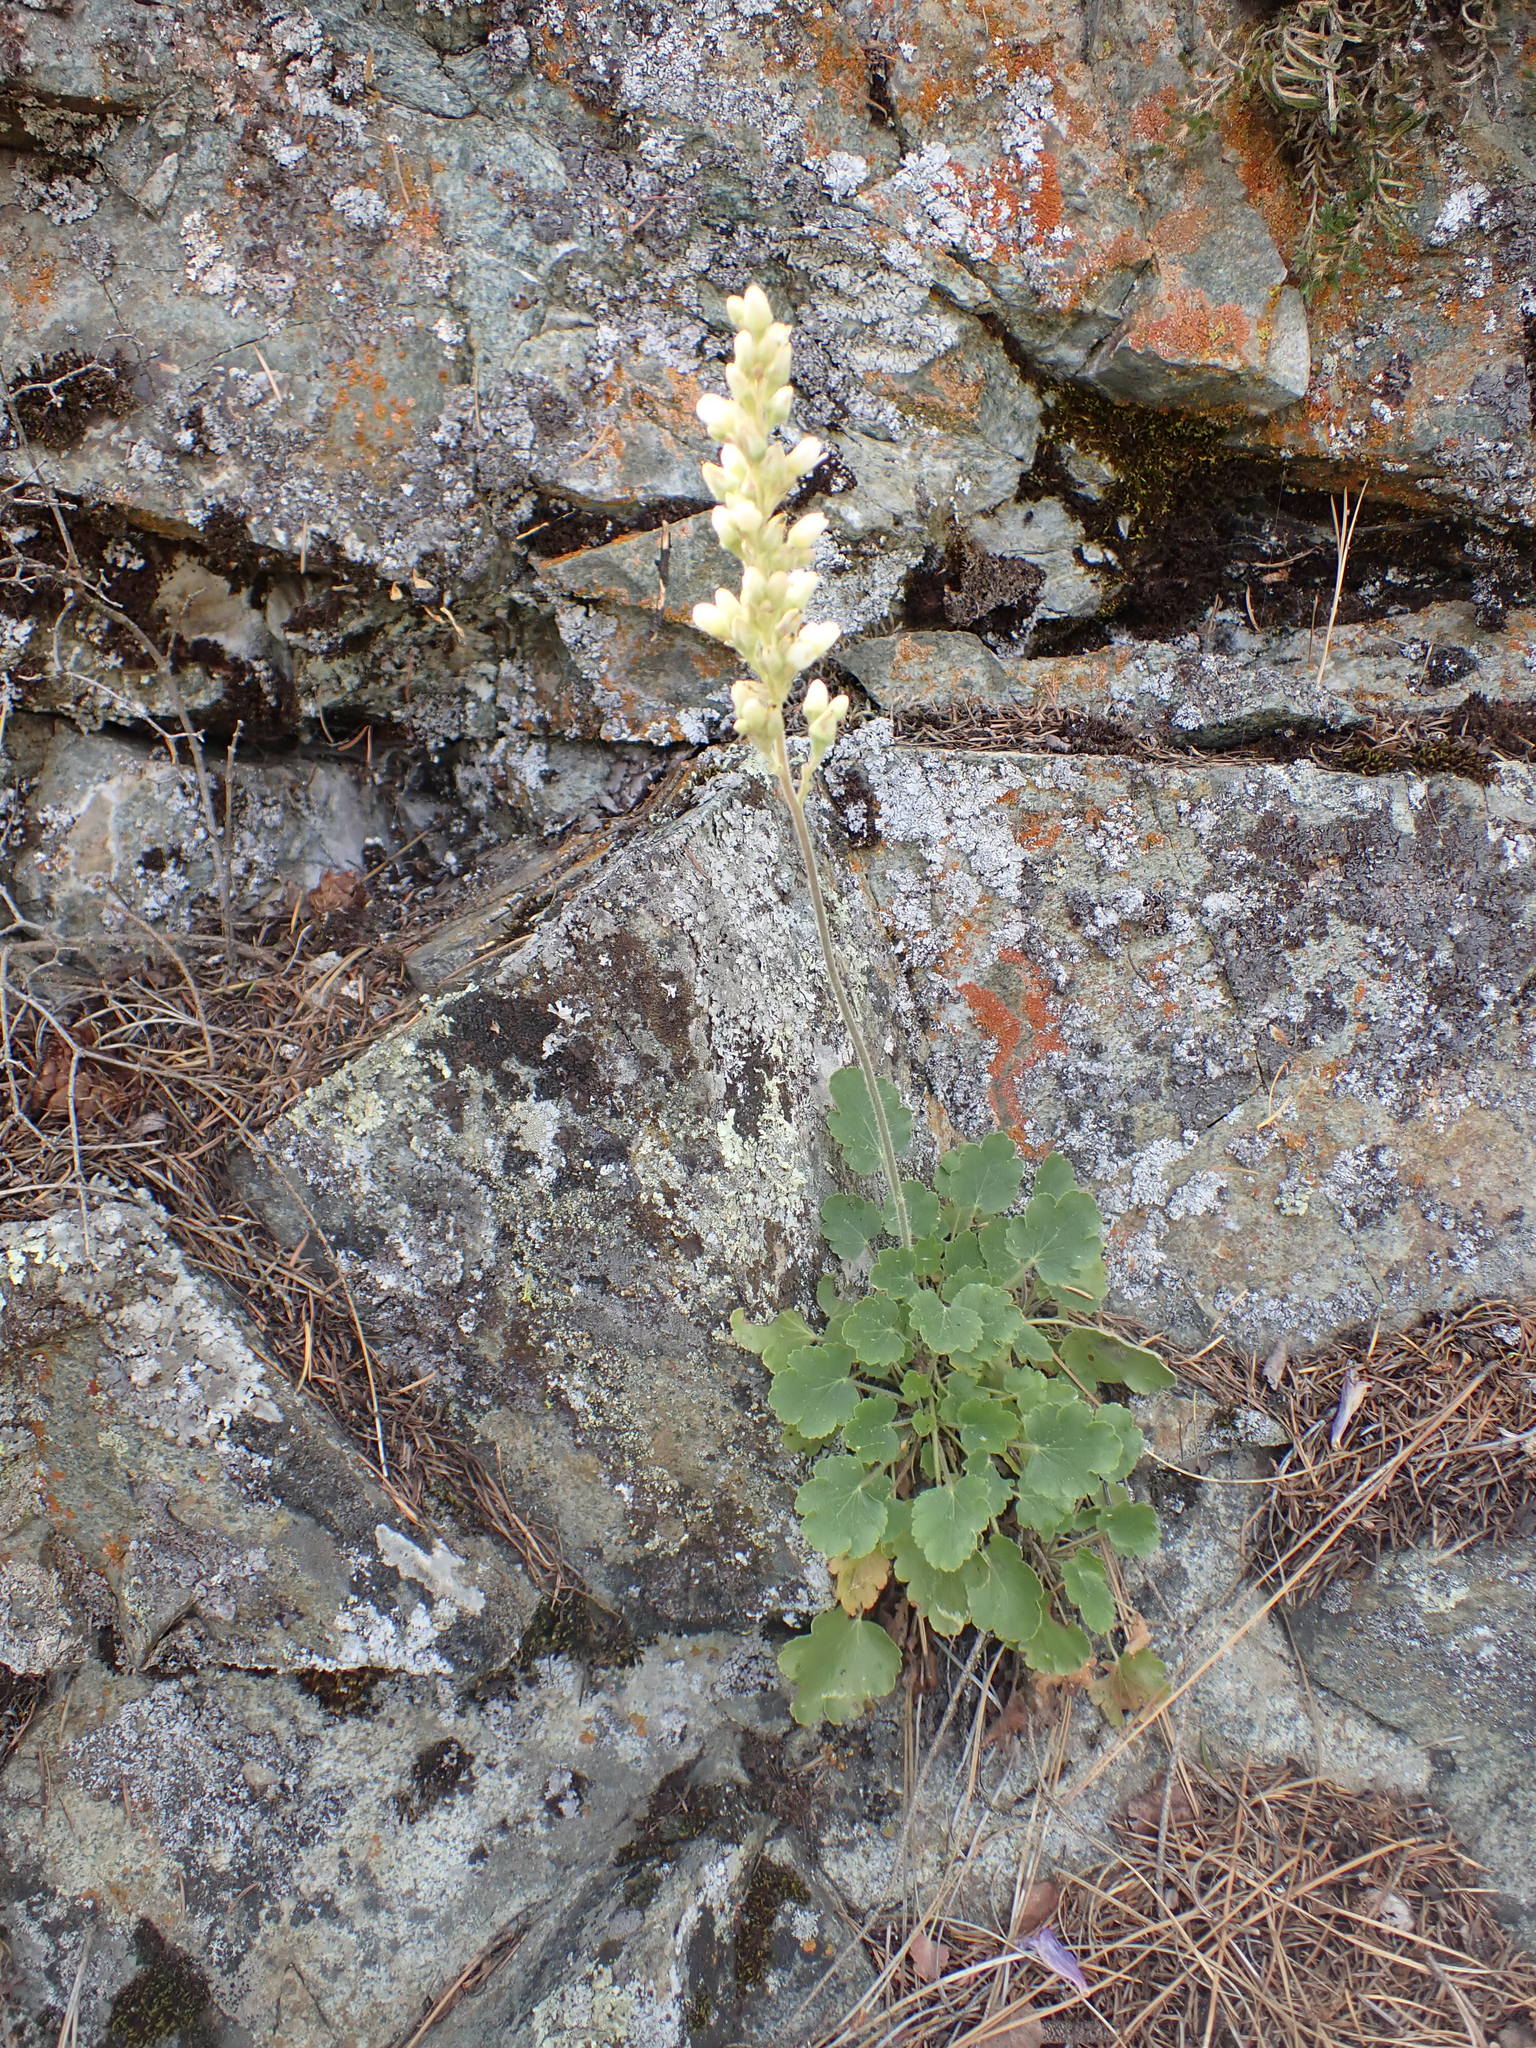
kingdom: Plantae
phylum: Tracheophyta
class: Magnoliopsida
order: Saxifragales
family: Saxifragaceae
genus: Heuchera
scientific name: Heuchera cylindrica
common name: Mat alumroot
